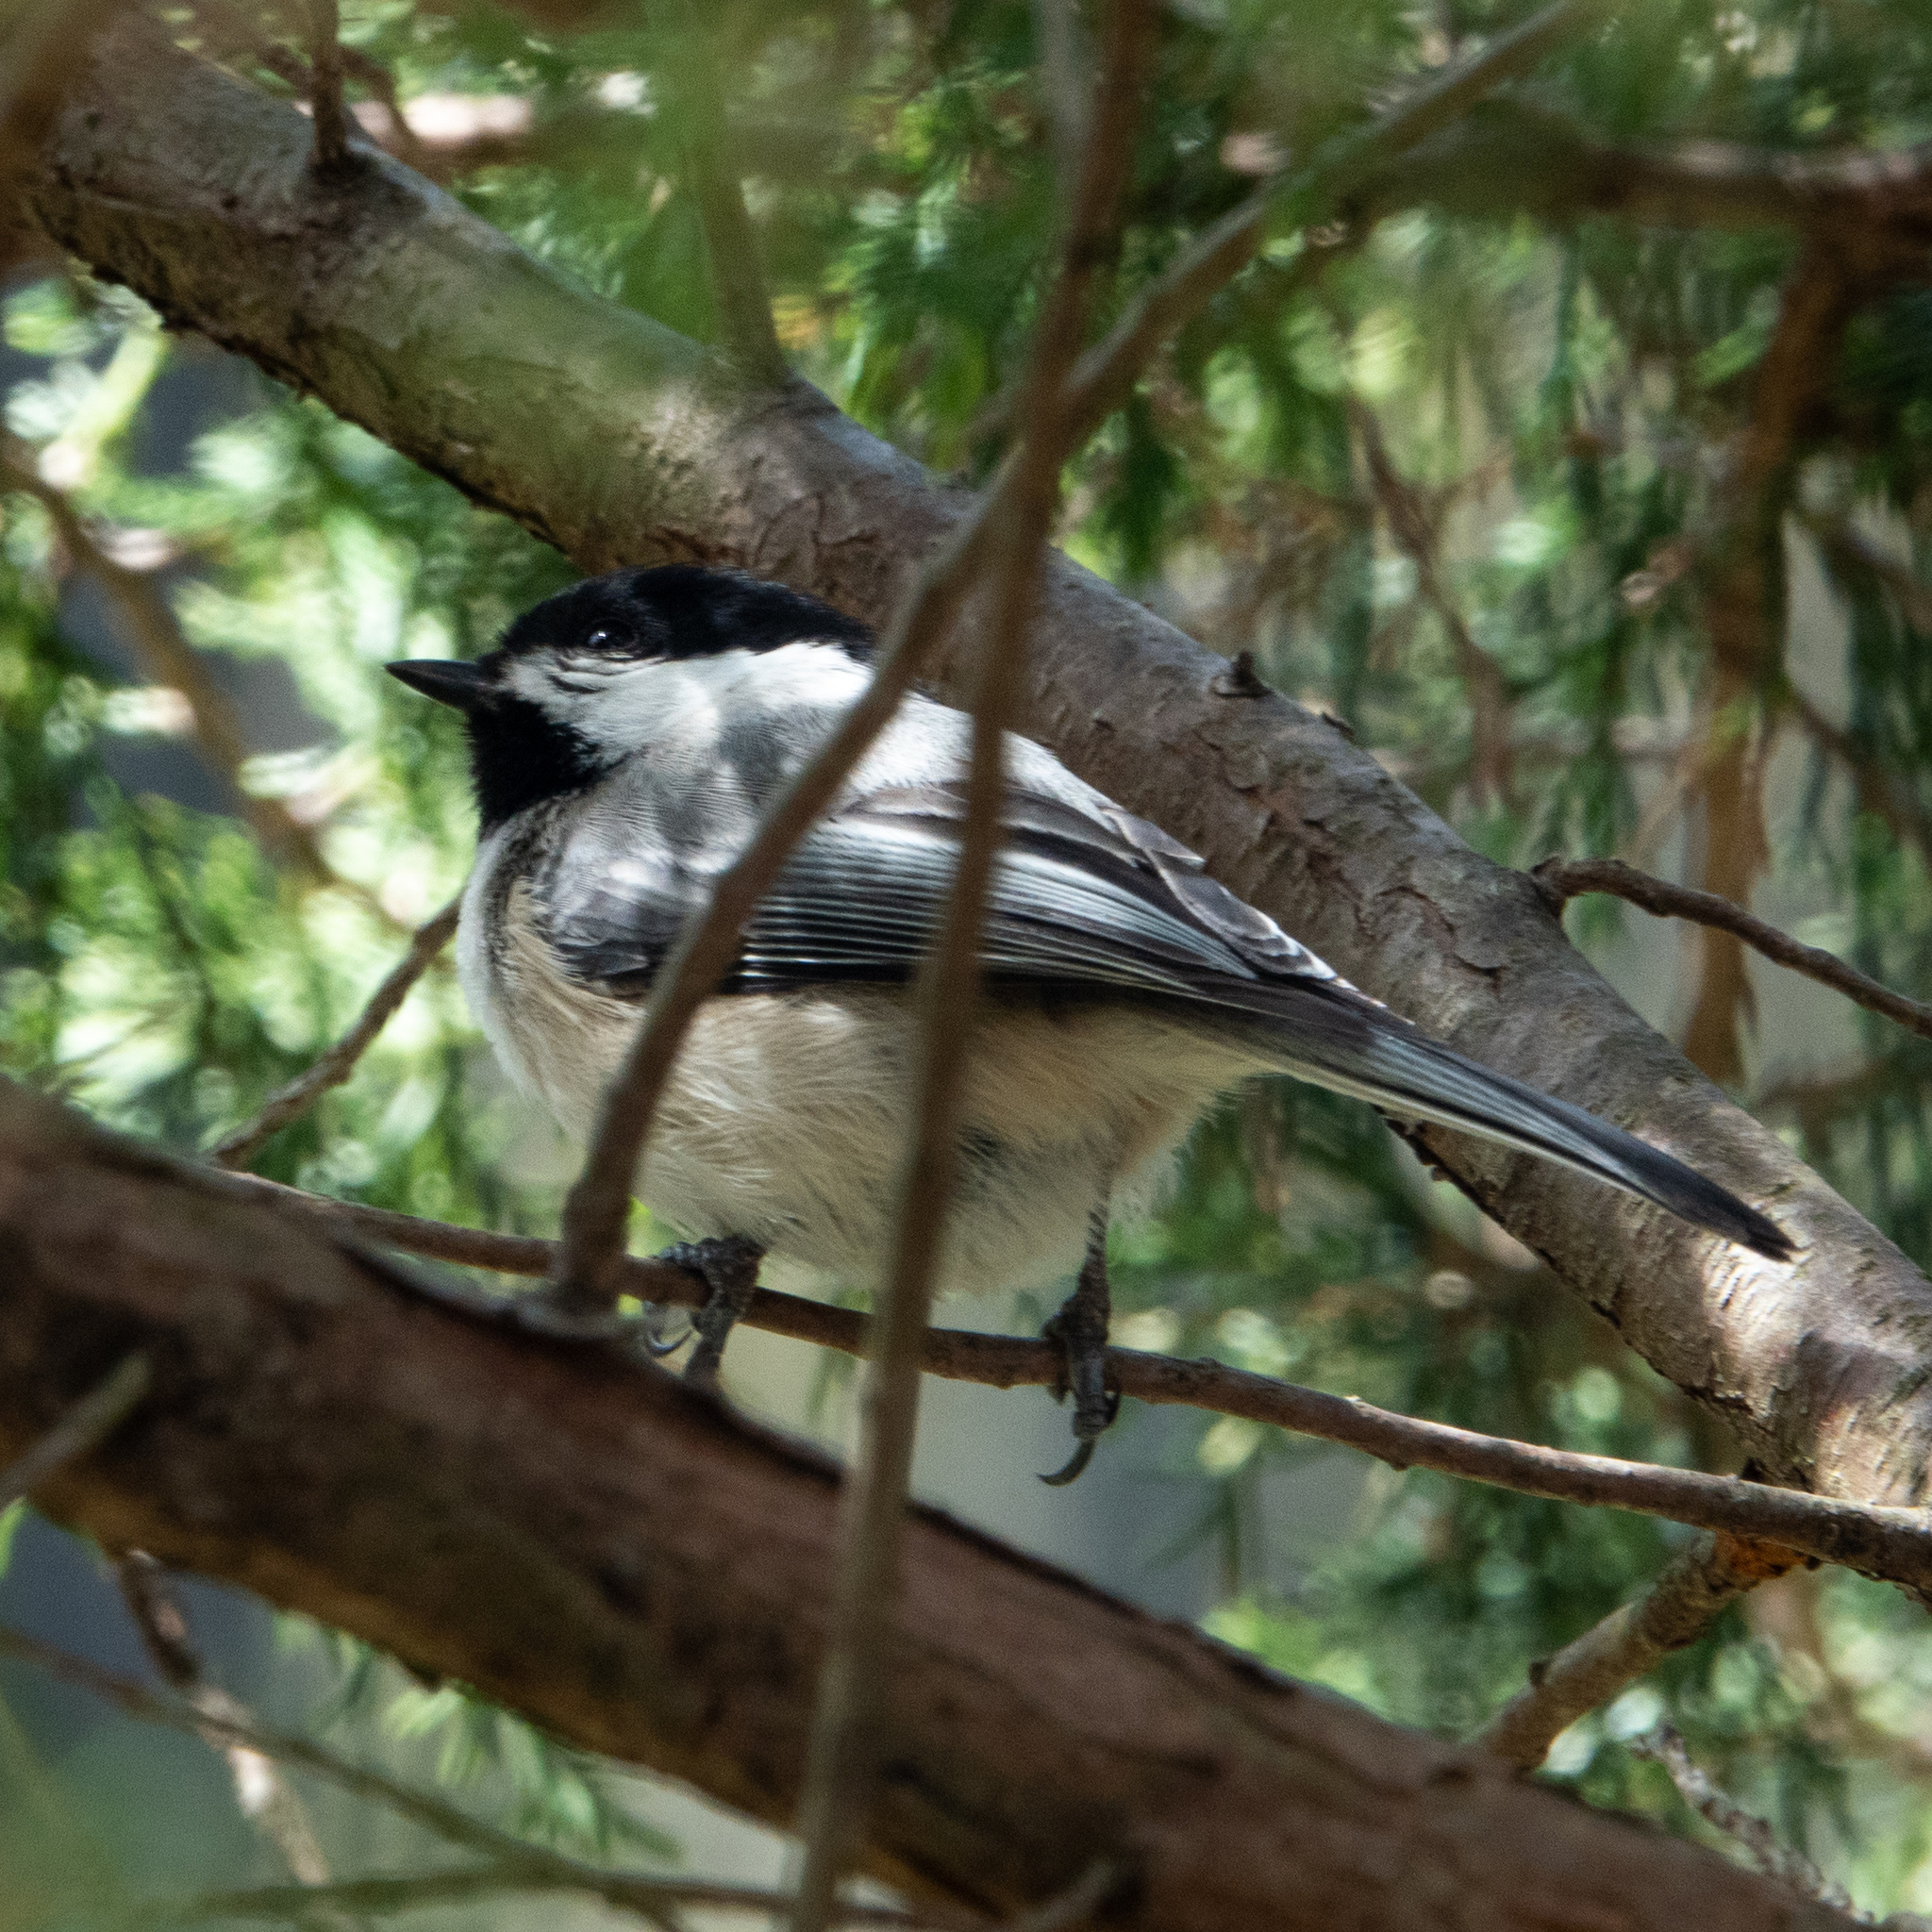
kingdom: Animalia
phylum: Chordata
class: Aves
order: Passeriformes
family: Paridae
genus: Poecile
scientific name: Poecile atricapillus
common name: Black-capped chickadee
